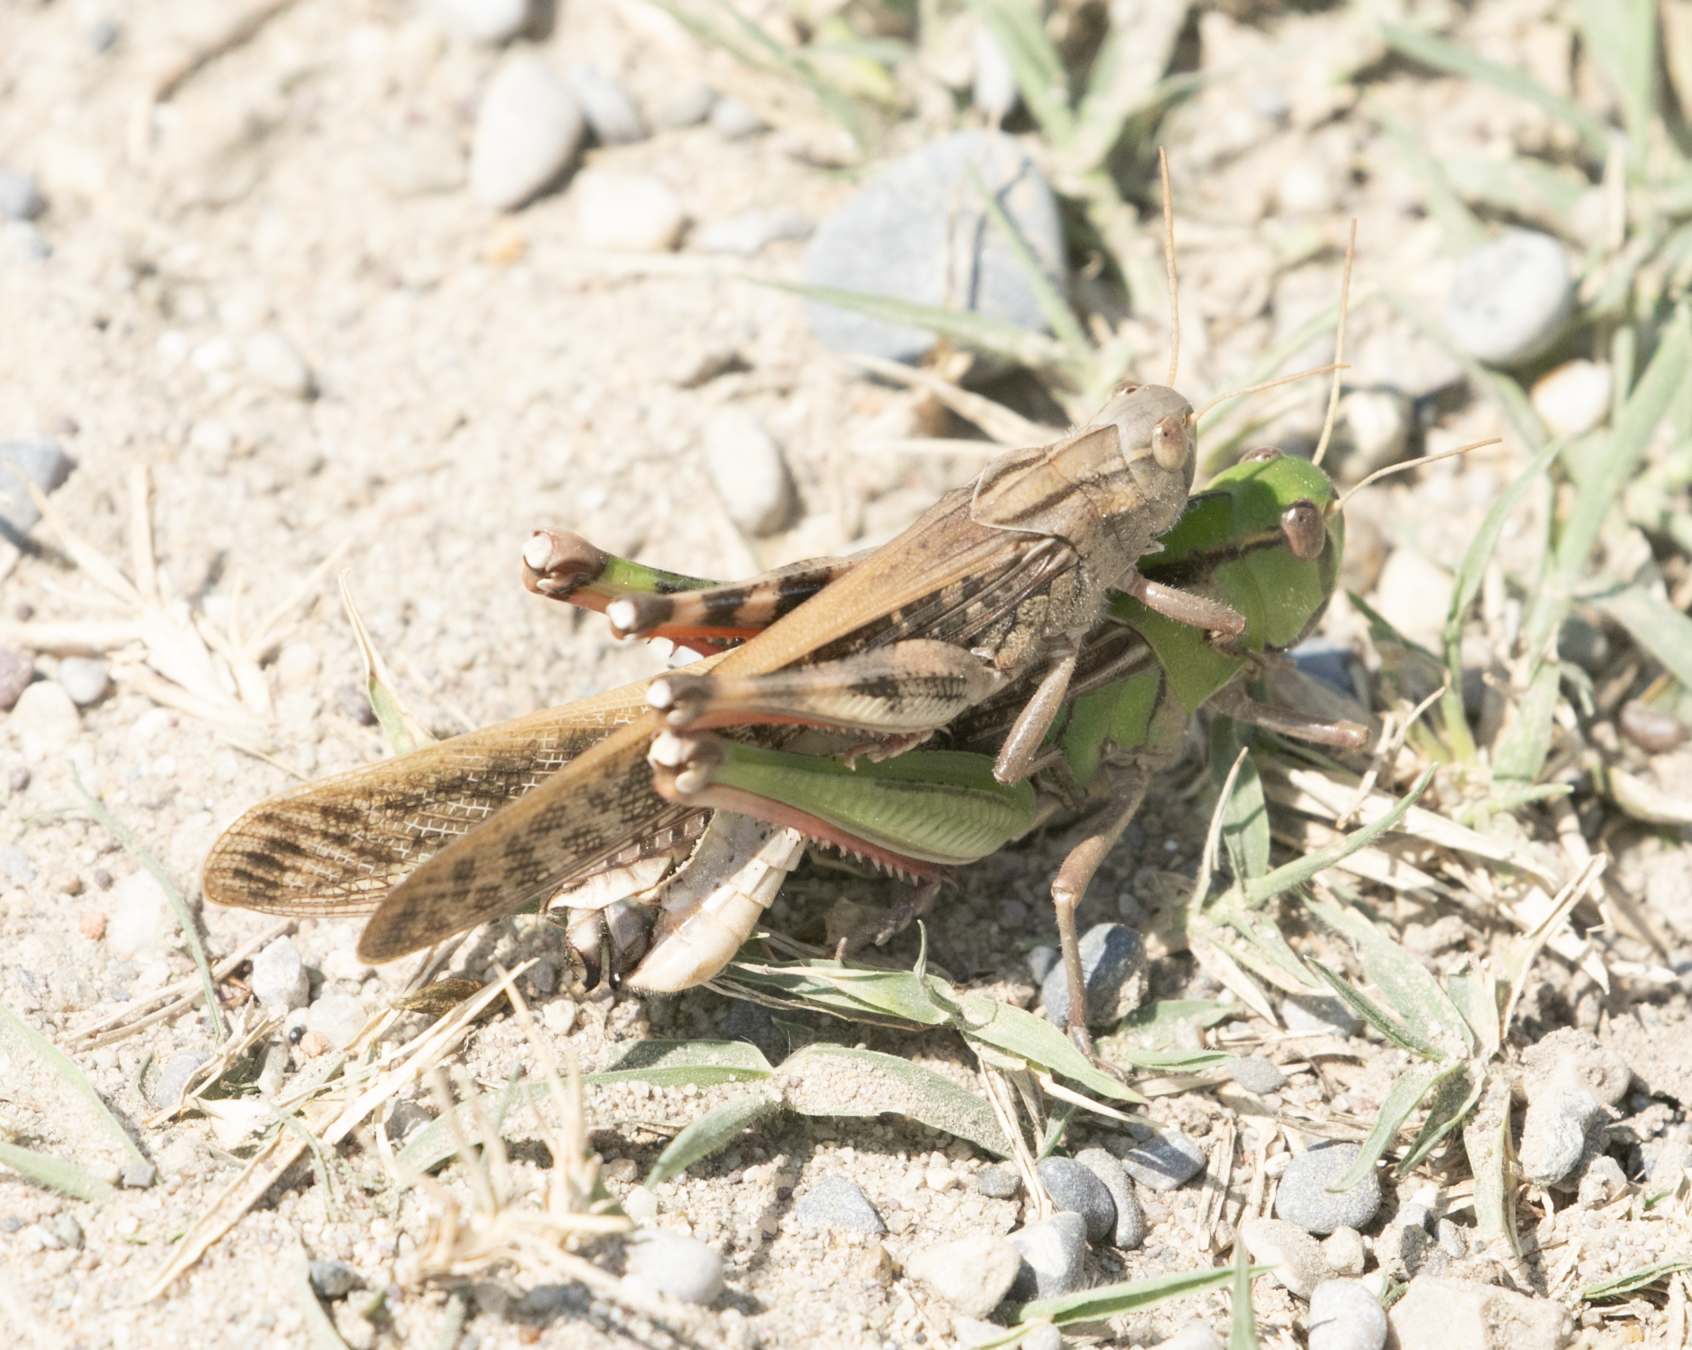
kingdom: Animalia
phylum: Arthropoda
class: Insecta
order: Orthoptera
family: Acrididae
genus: Locusta
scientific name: Locusta migratoria
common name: Migratory locust
